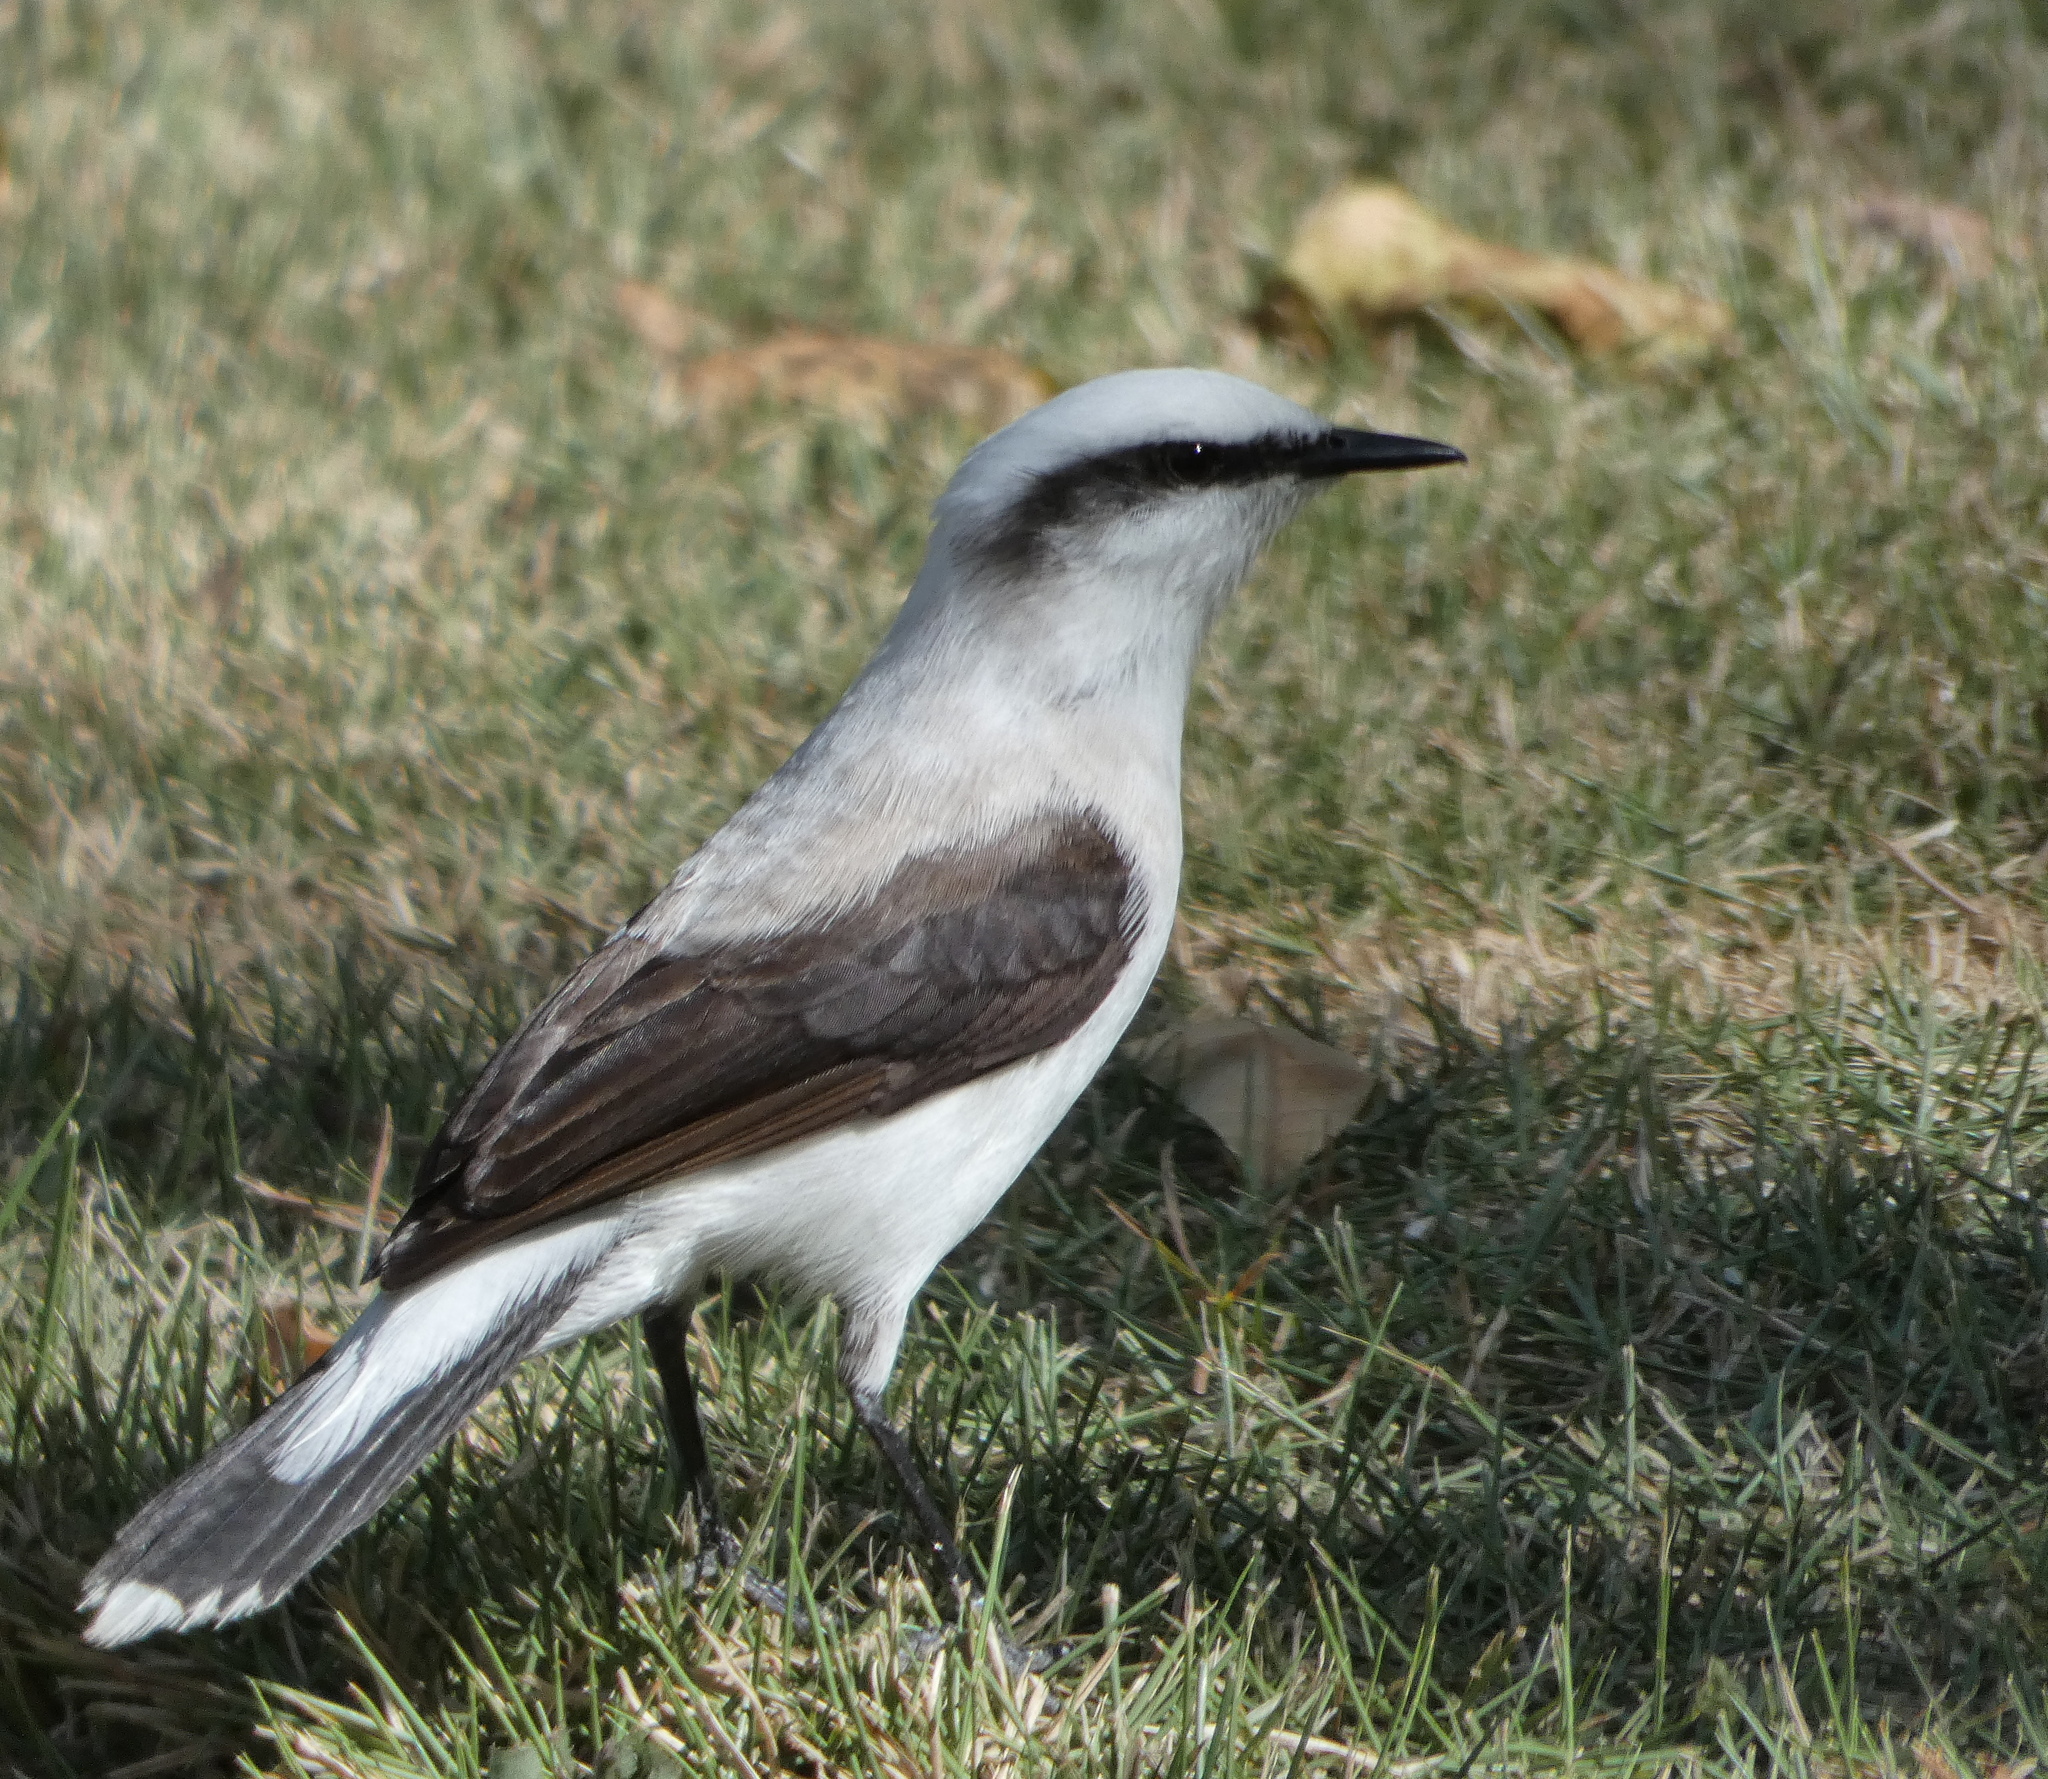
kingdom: Animalia
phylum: Chordata
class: Aves
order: Passeriformes
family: Tyrannidae
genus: Fluvicola
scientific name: Fluvicola nengeta
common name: Masked water tyrant
